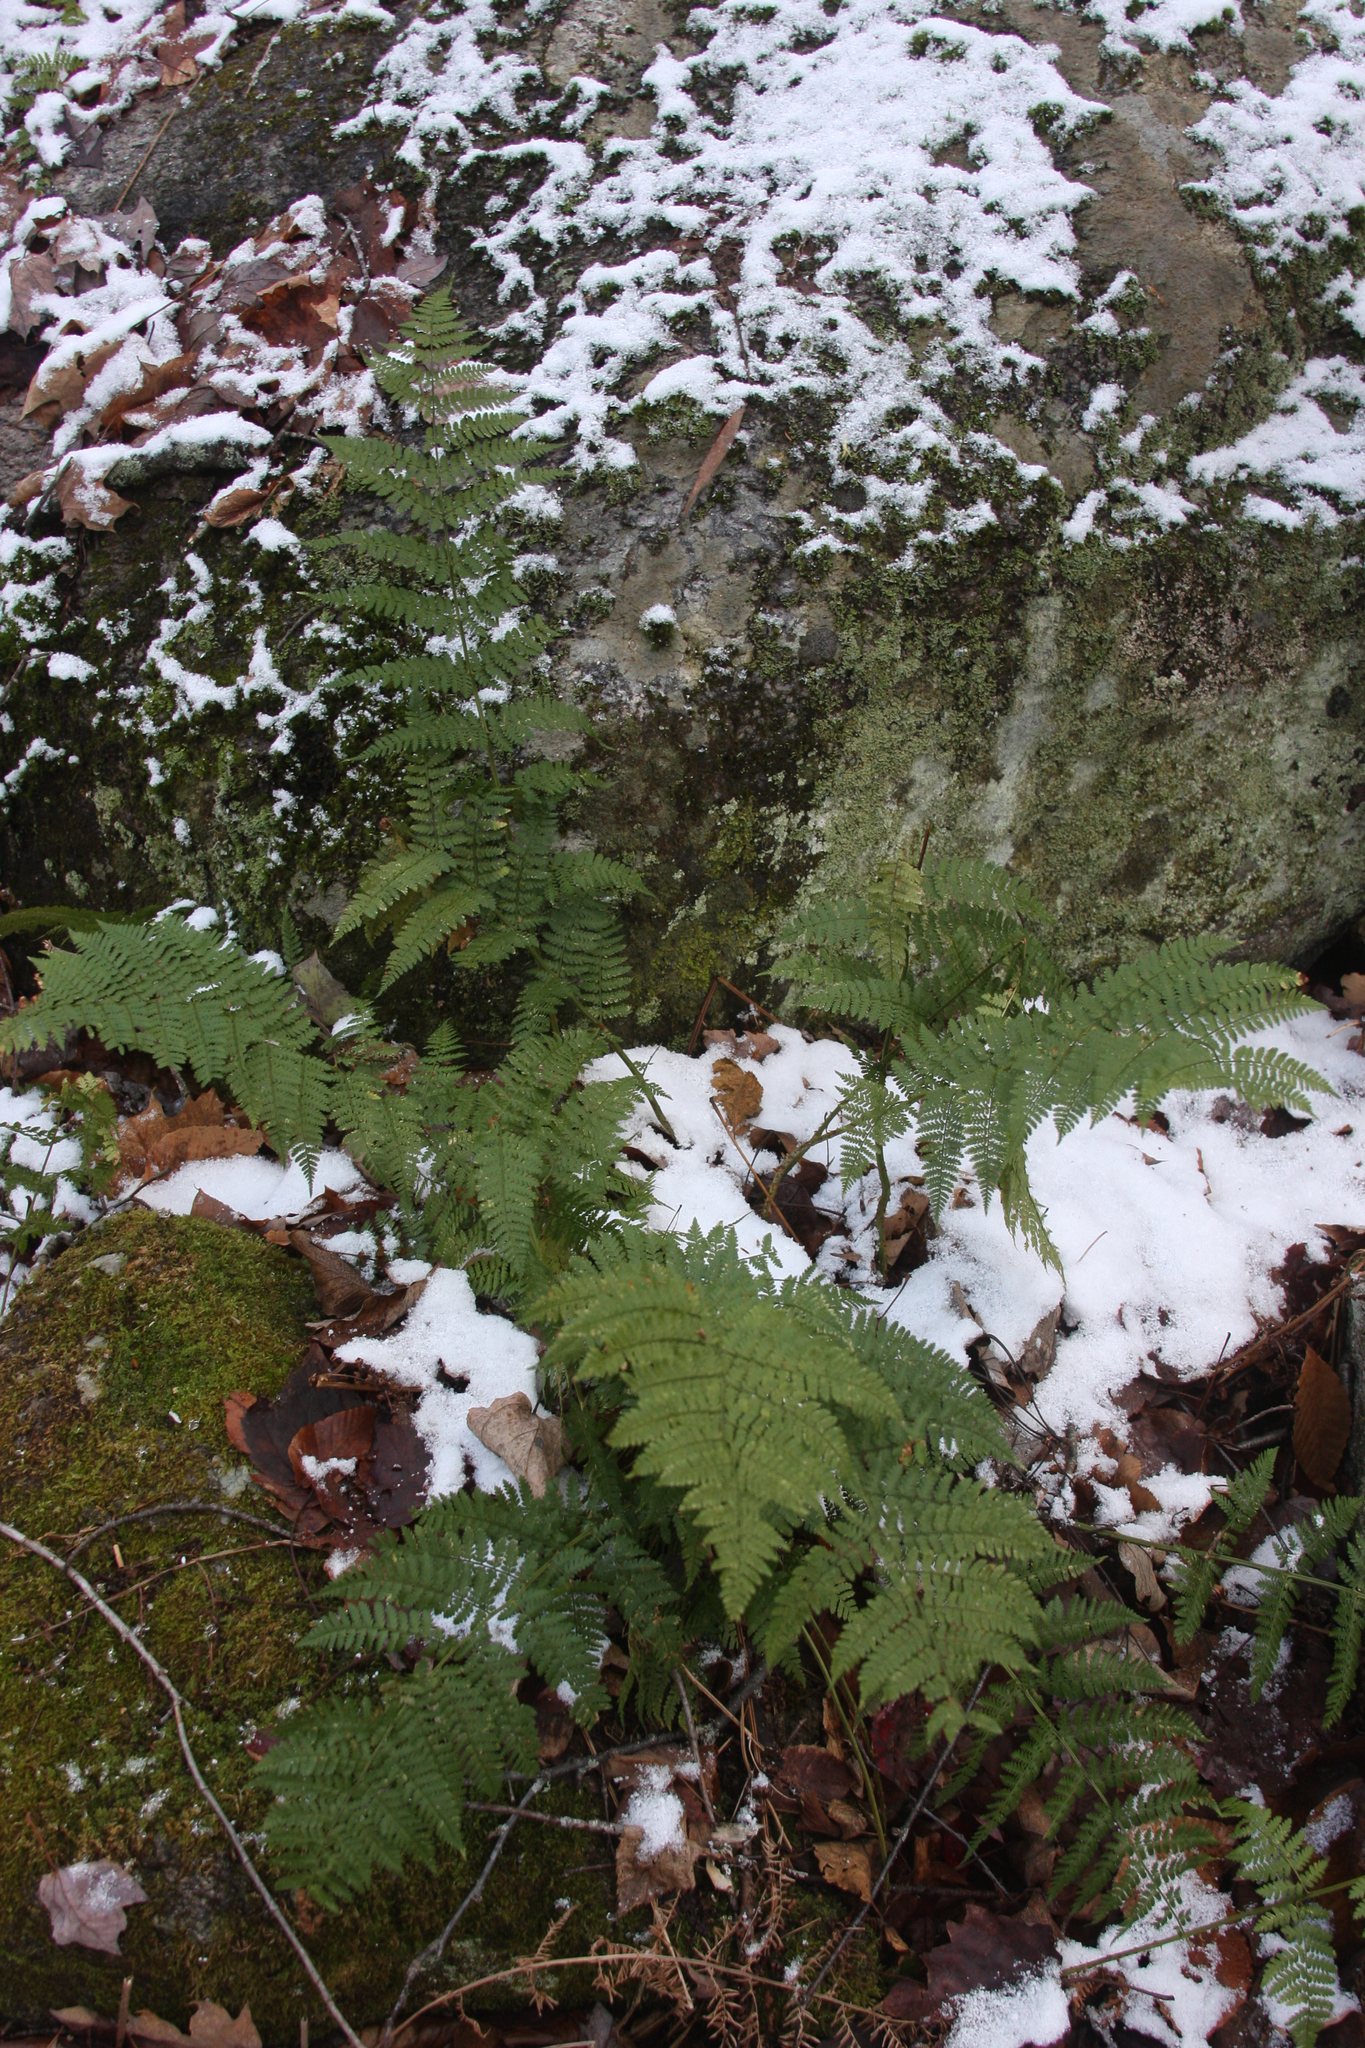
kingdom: Plantae
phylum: Tracheophyta
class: Polypodiopsida
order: Polypodiales
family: Dryopteridaceae
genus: Dryopteris
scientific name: Dryopteris intermedia
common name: Evergreen wood fern
